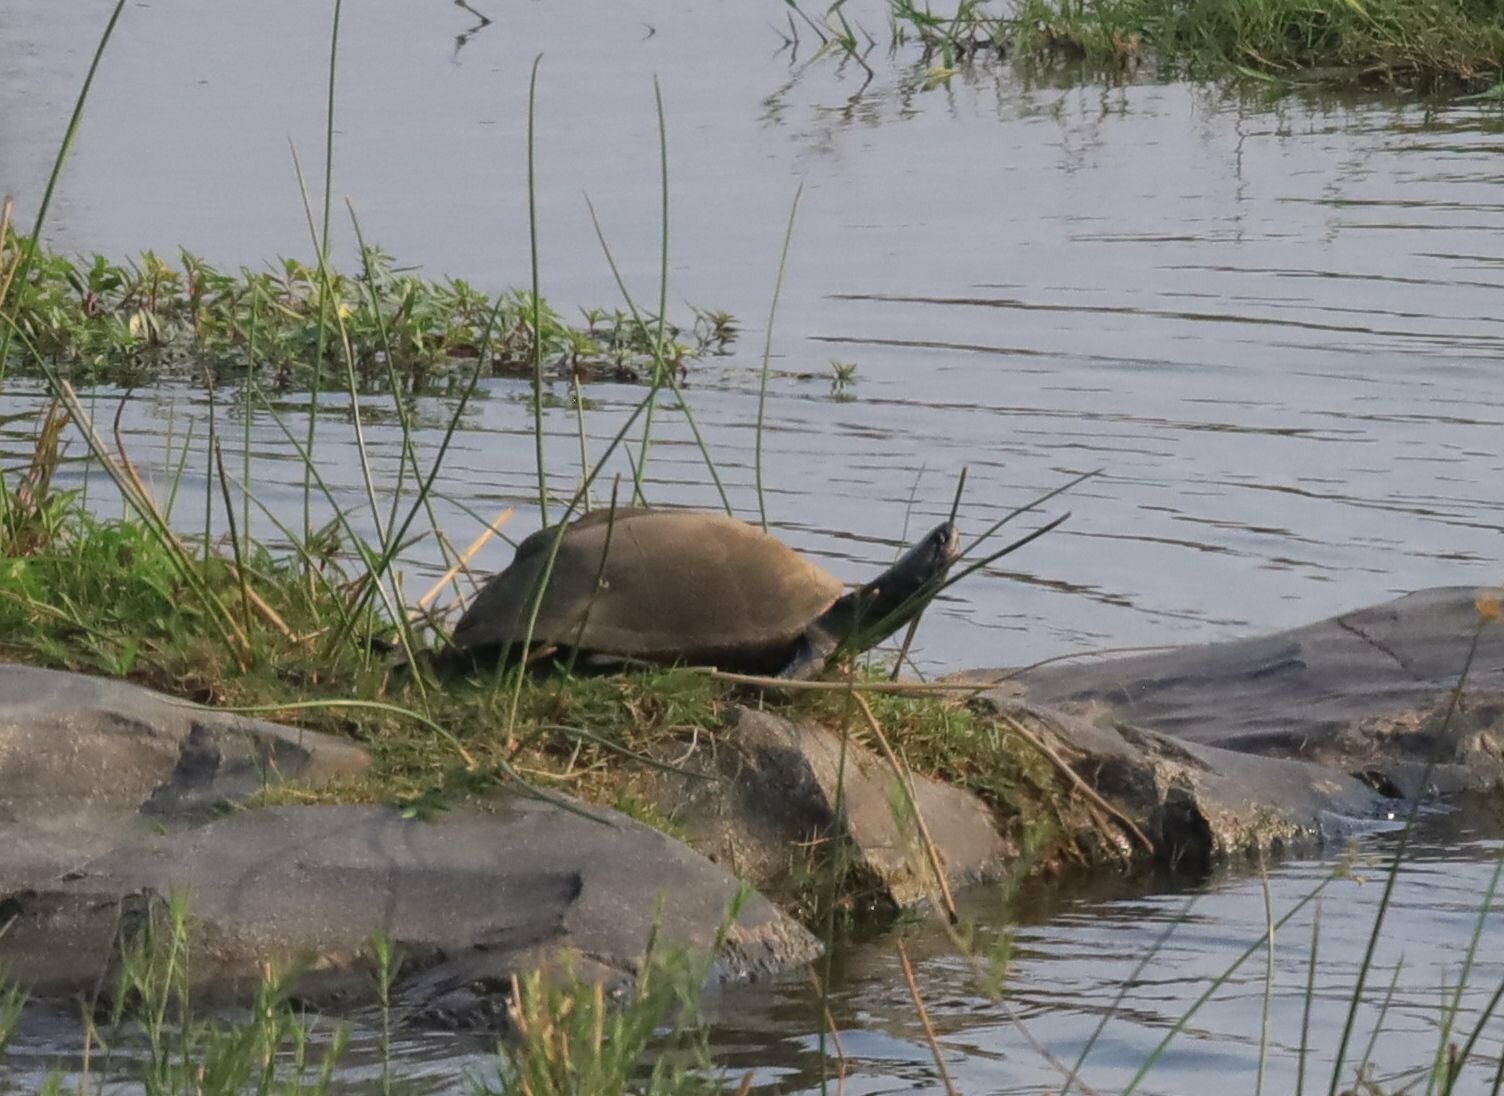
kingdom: Animalia
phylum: Chordata
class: Testudines
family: Pelomedusidae
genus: Pelusios
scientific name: Pelusios sinuatus
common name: Serrated hinged terrapin
